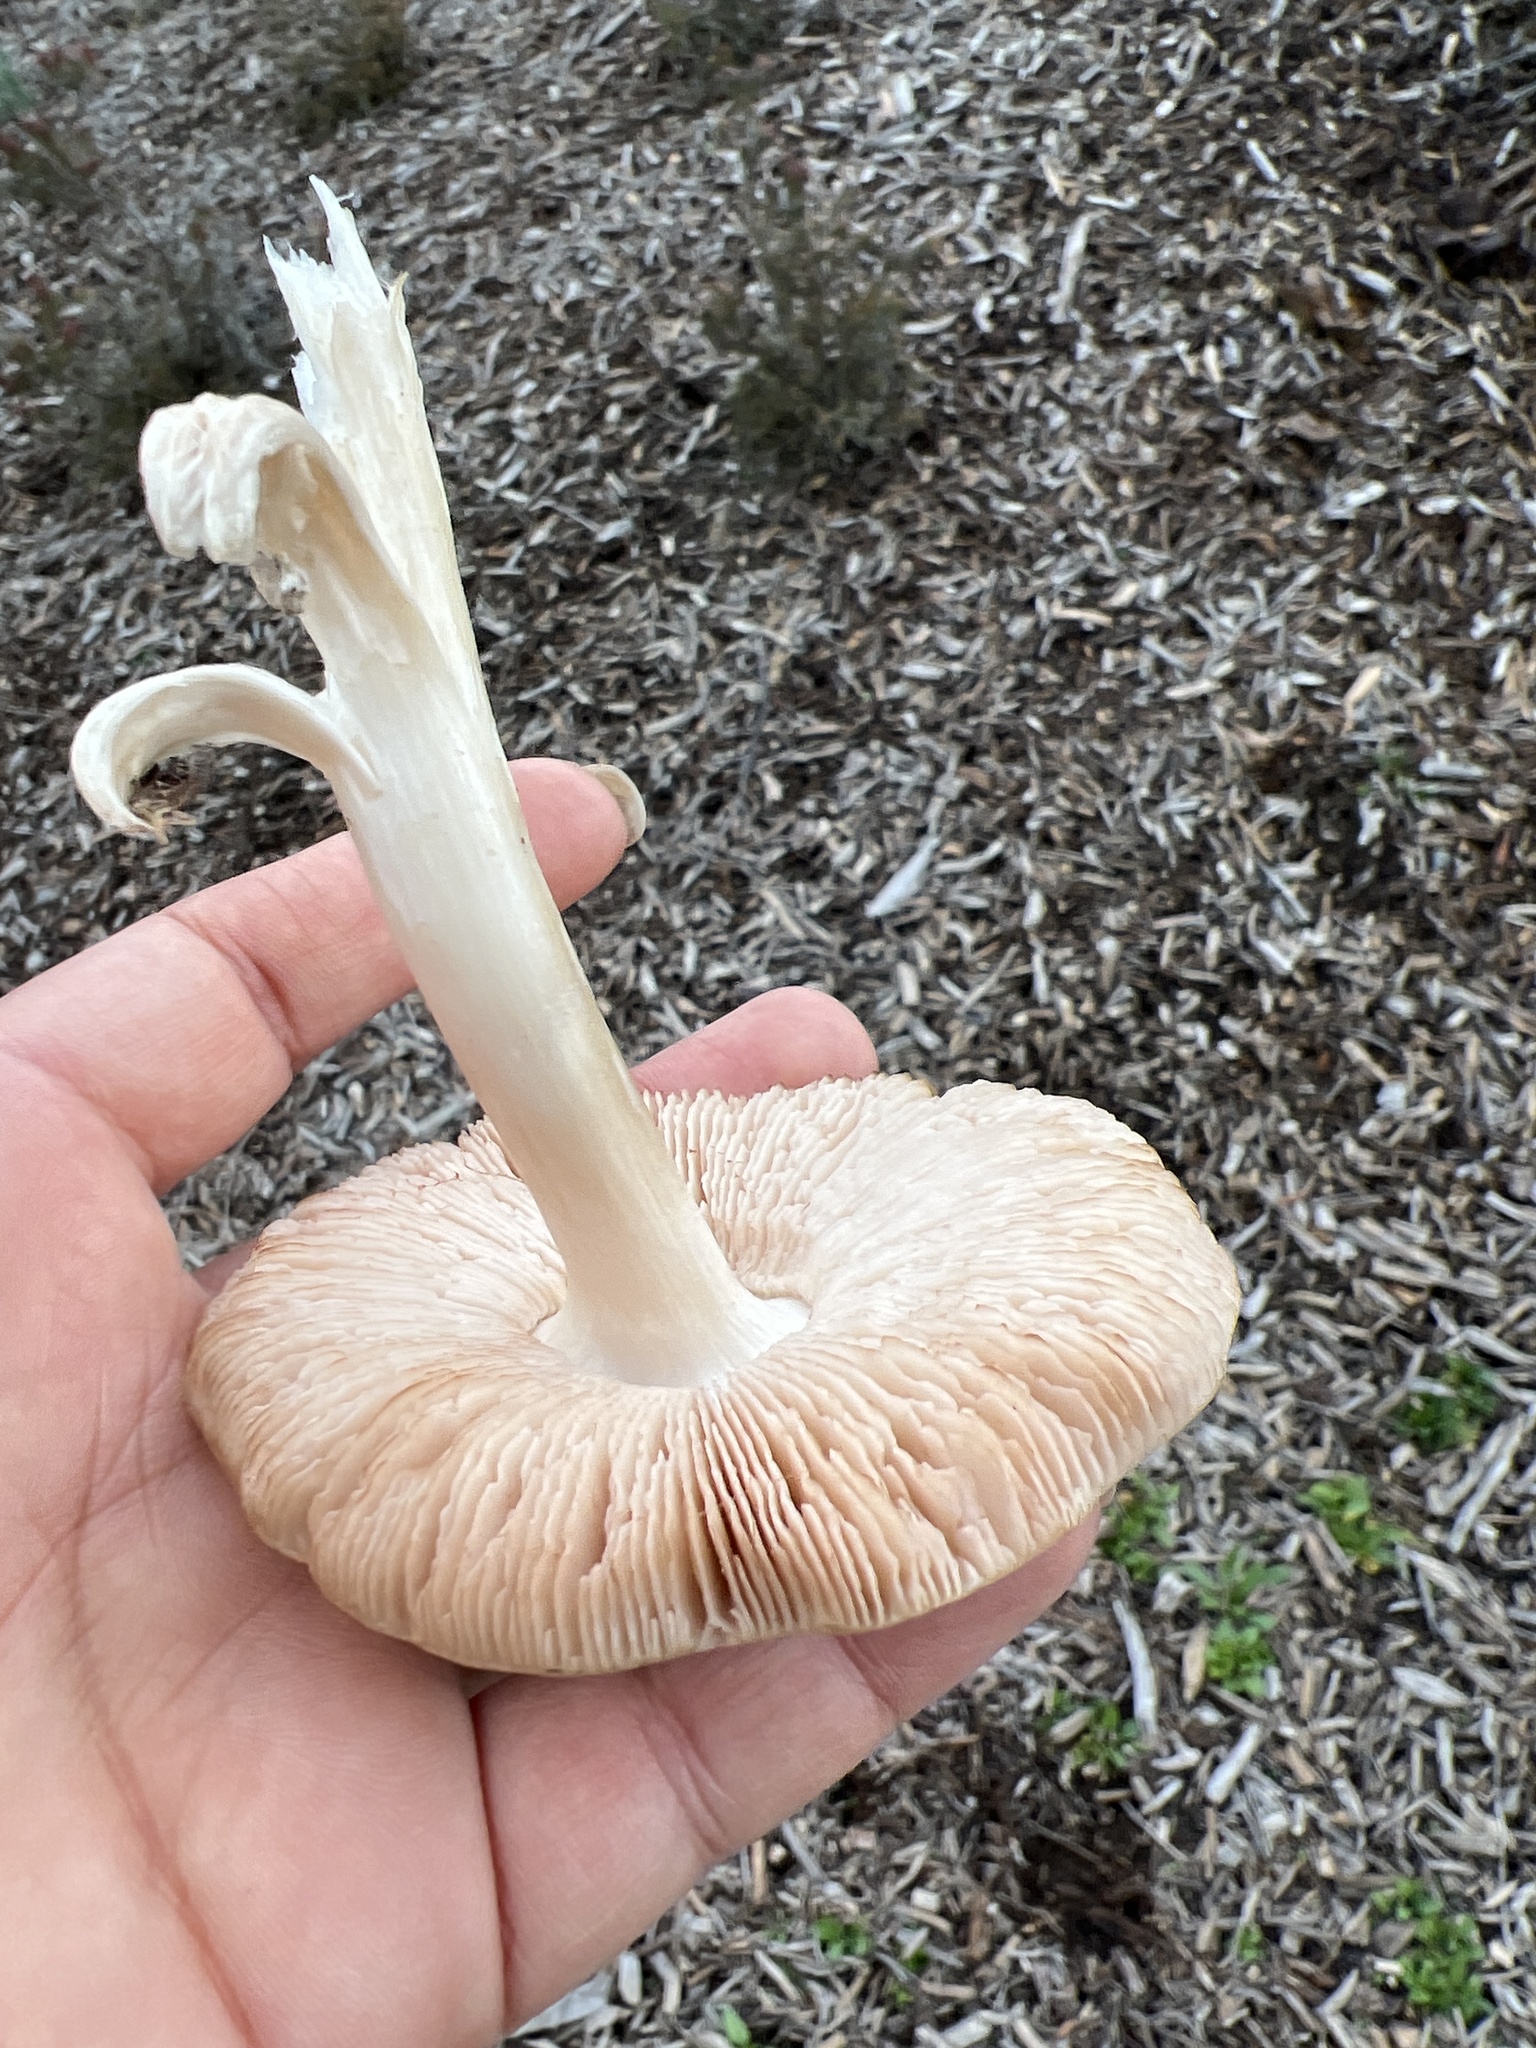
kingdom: Fungi
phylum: Basidiomycota
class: Agaricomycetes
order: Agaricales
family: Pluteaceae
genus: Volvopluteus
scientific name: Volvopluteus gloiocephalus
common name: Stubble rosegill
